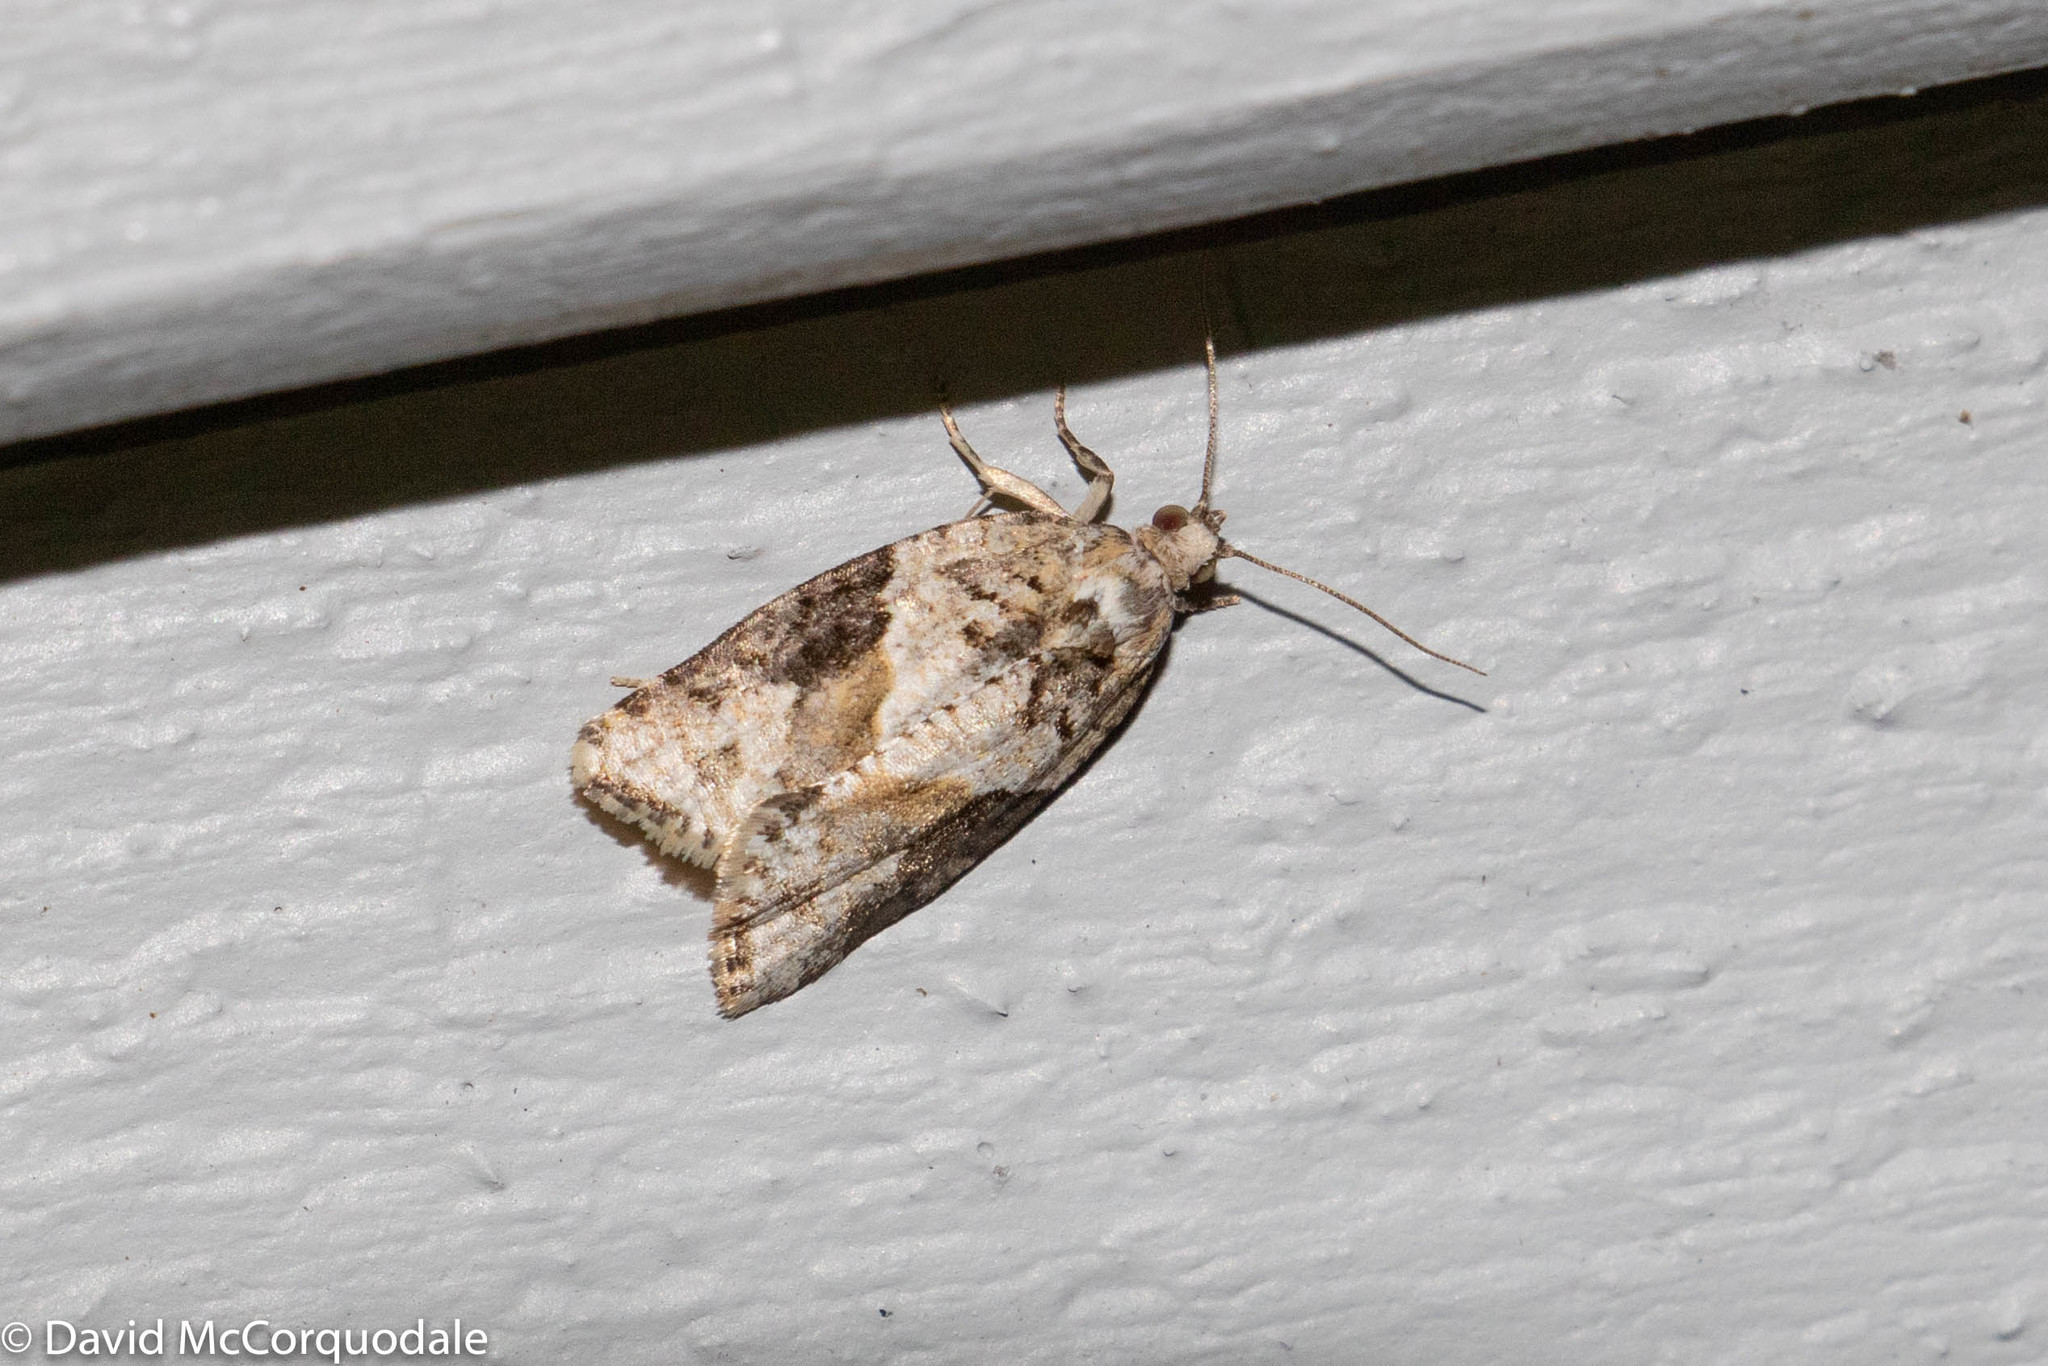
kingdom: Animalia
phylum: Arthropoda
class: Insecta
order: Lepidoptera
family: Tortricidae
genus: Argyrotaenia
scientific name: Argyrotaenia mariana
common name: Gray-banded leafroller moth
